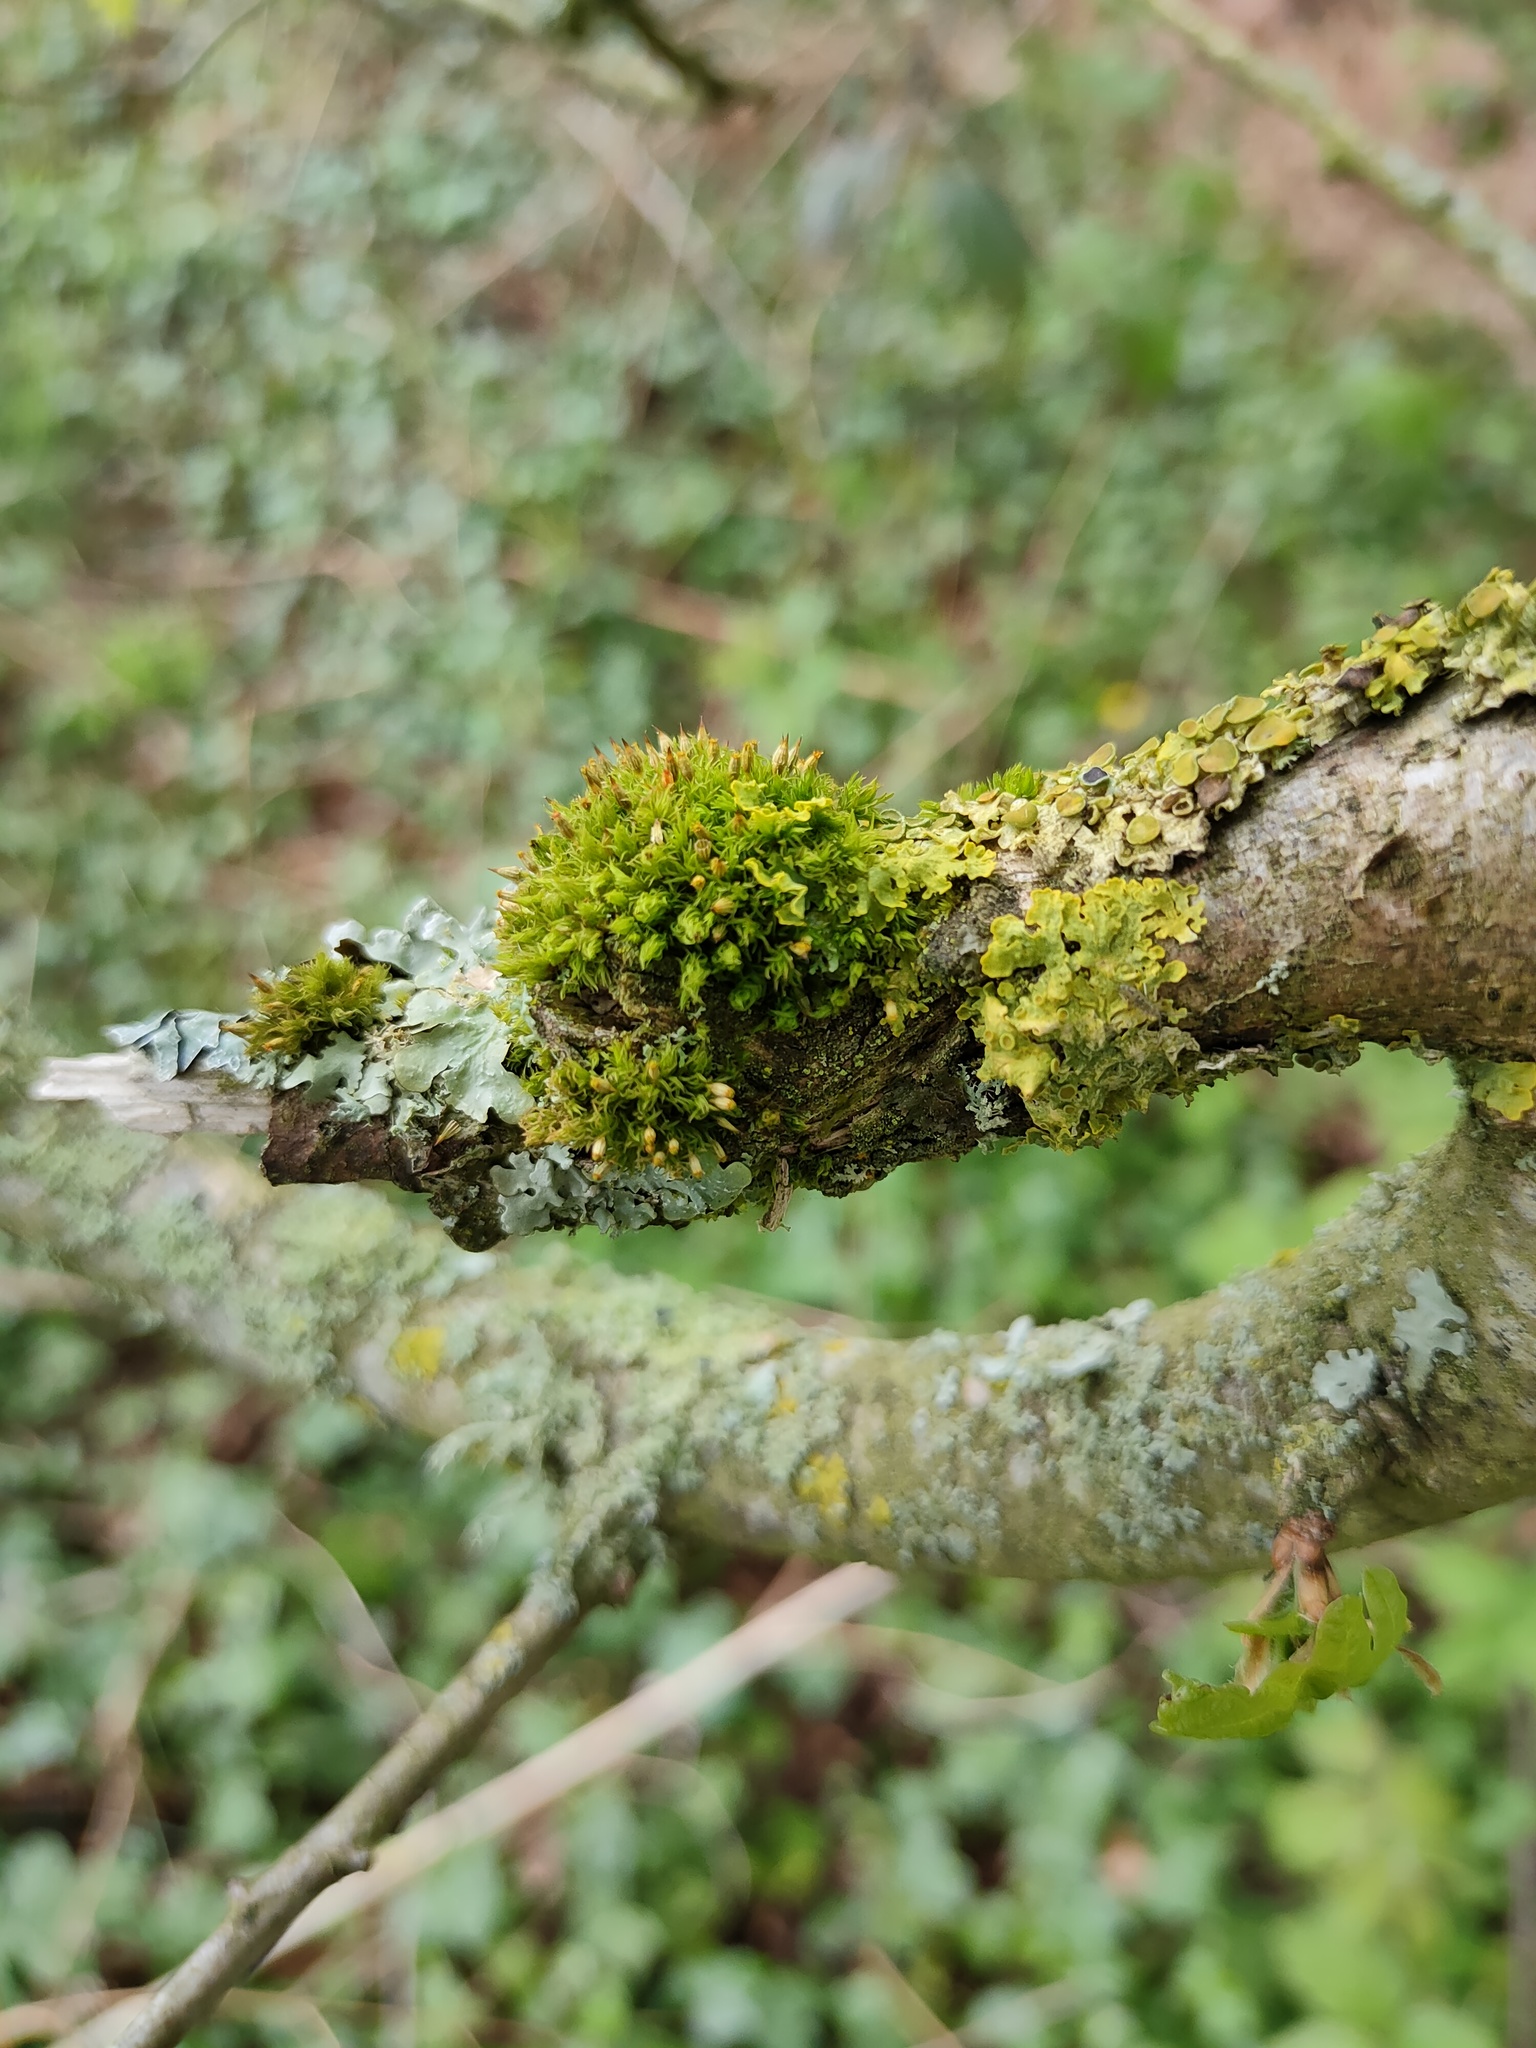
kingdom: Plantae
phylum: Bryophyta
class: Bryopsida
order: Orthotrichales
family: Orthotrichaceae
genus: Orthotrichum
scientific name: Orthotrichum pulchellum
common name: Elegant bristle-moss
